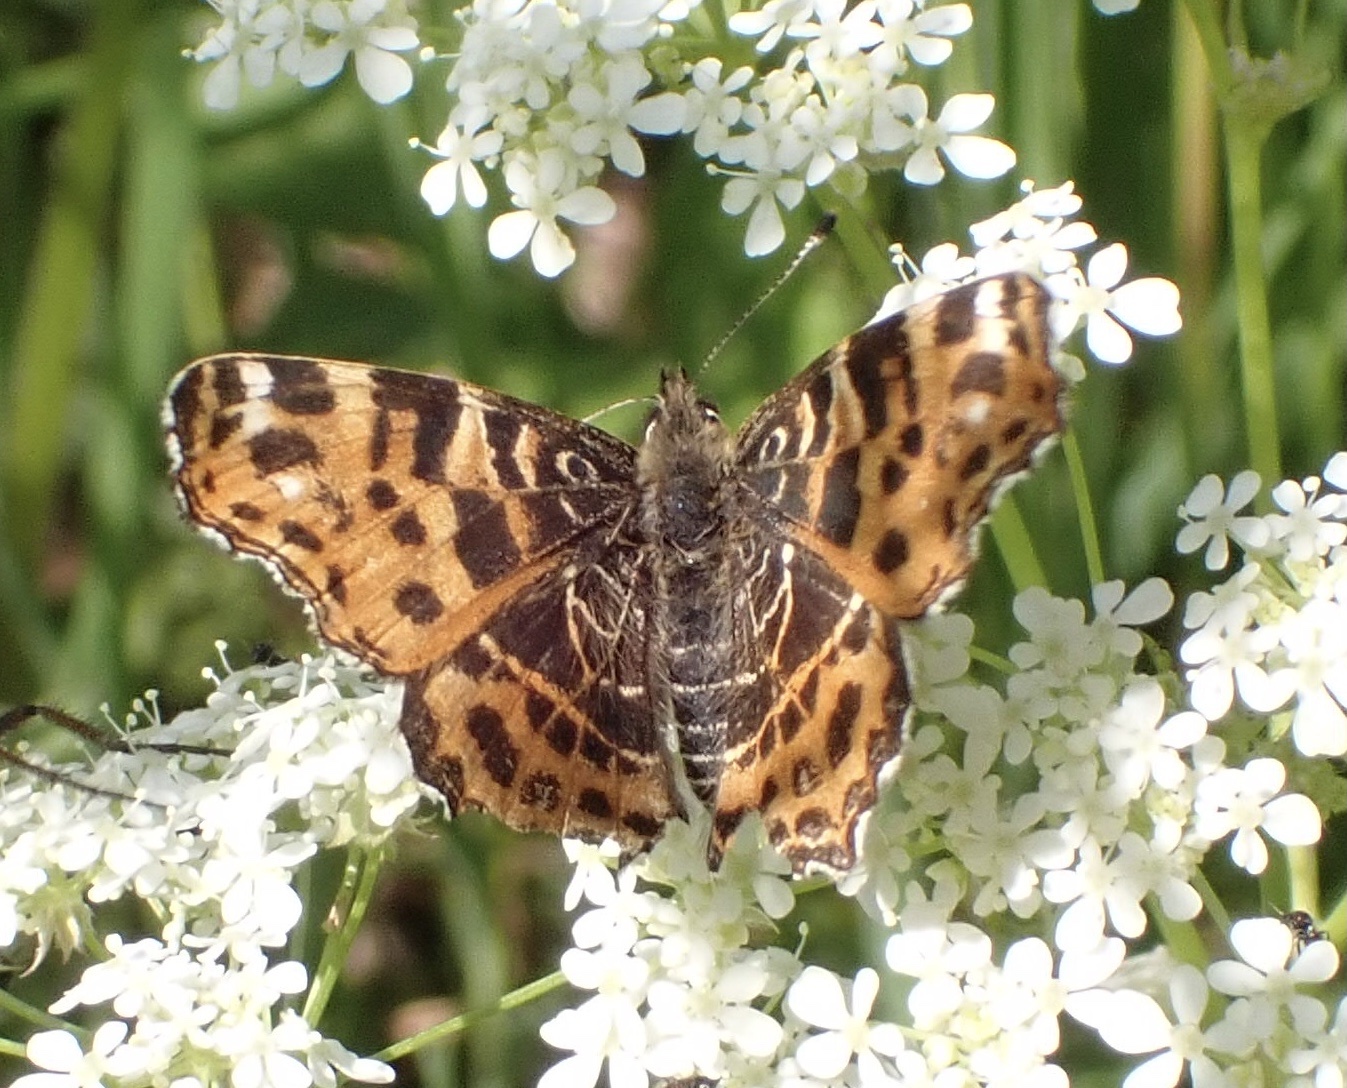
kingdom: Animalia
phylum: Arthropoda
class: Insecta
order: Lepidoptera
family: Nymphalidae
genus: Araschnia
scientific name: Araschnia levana
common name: Map butterfly
